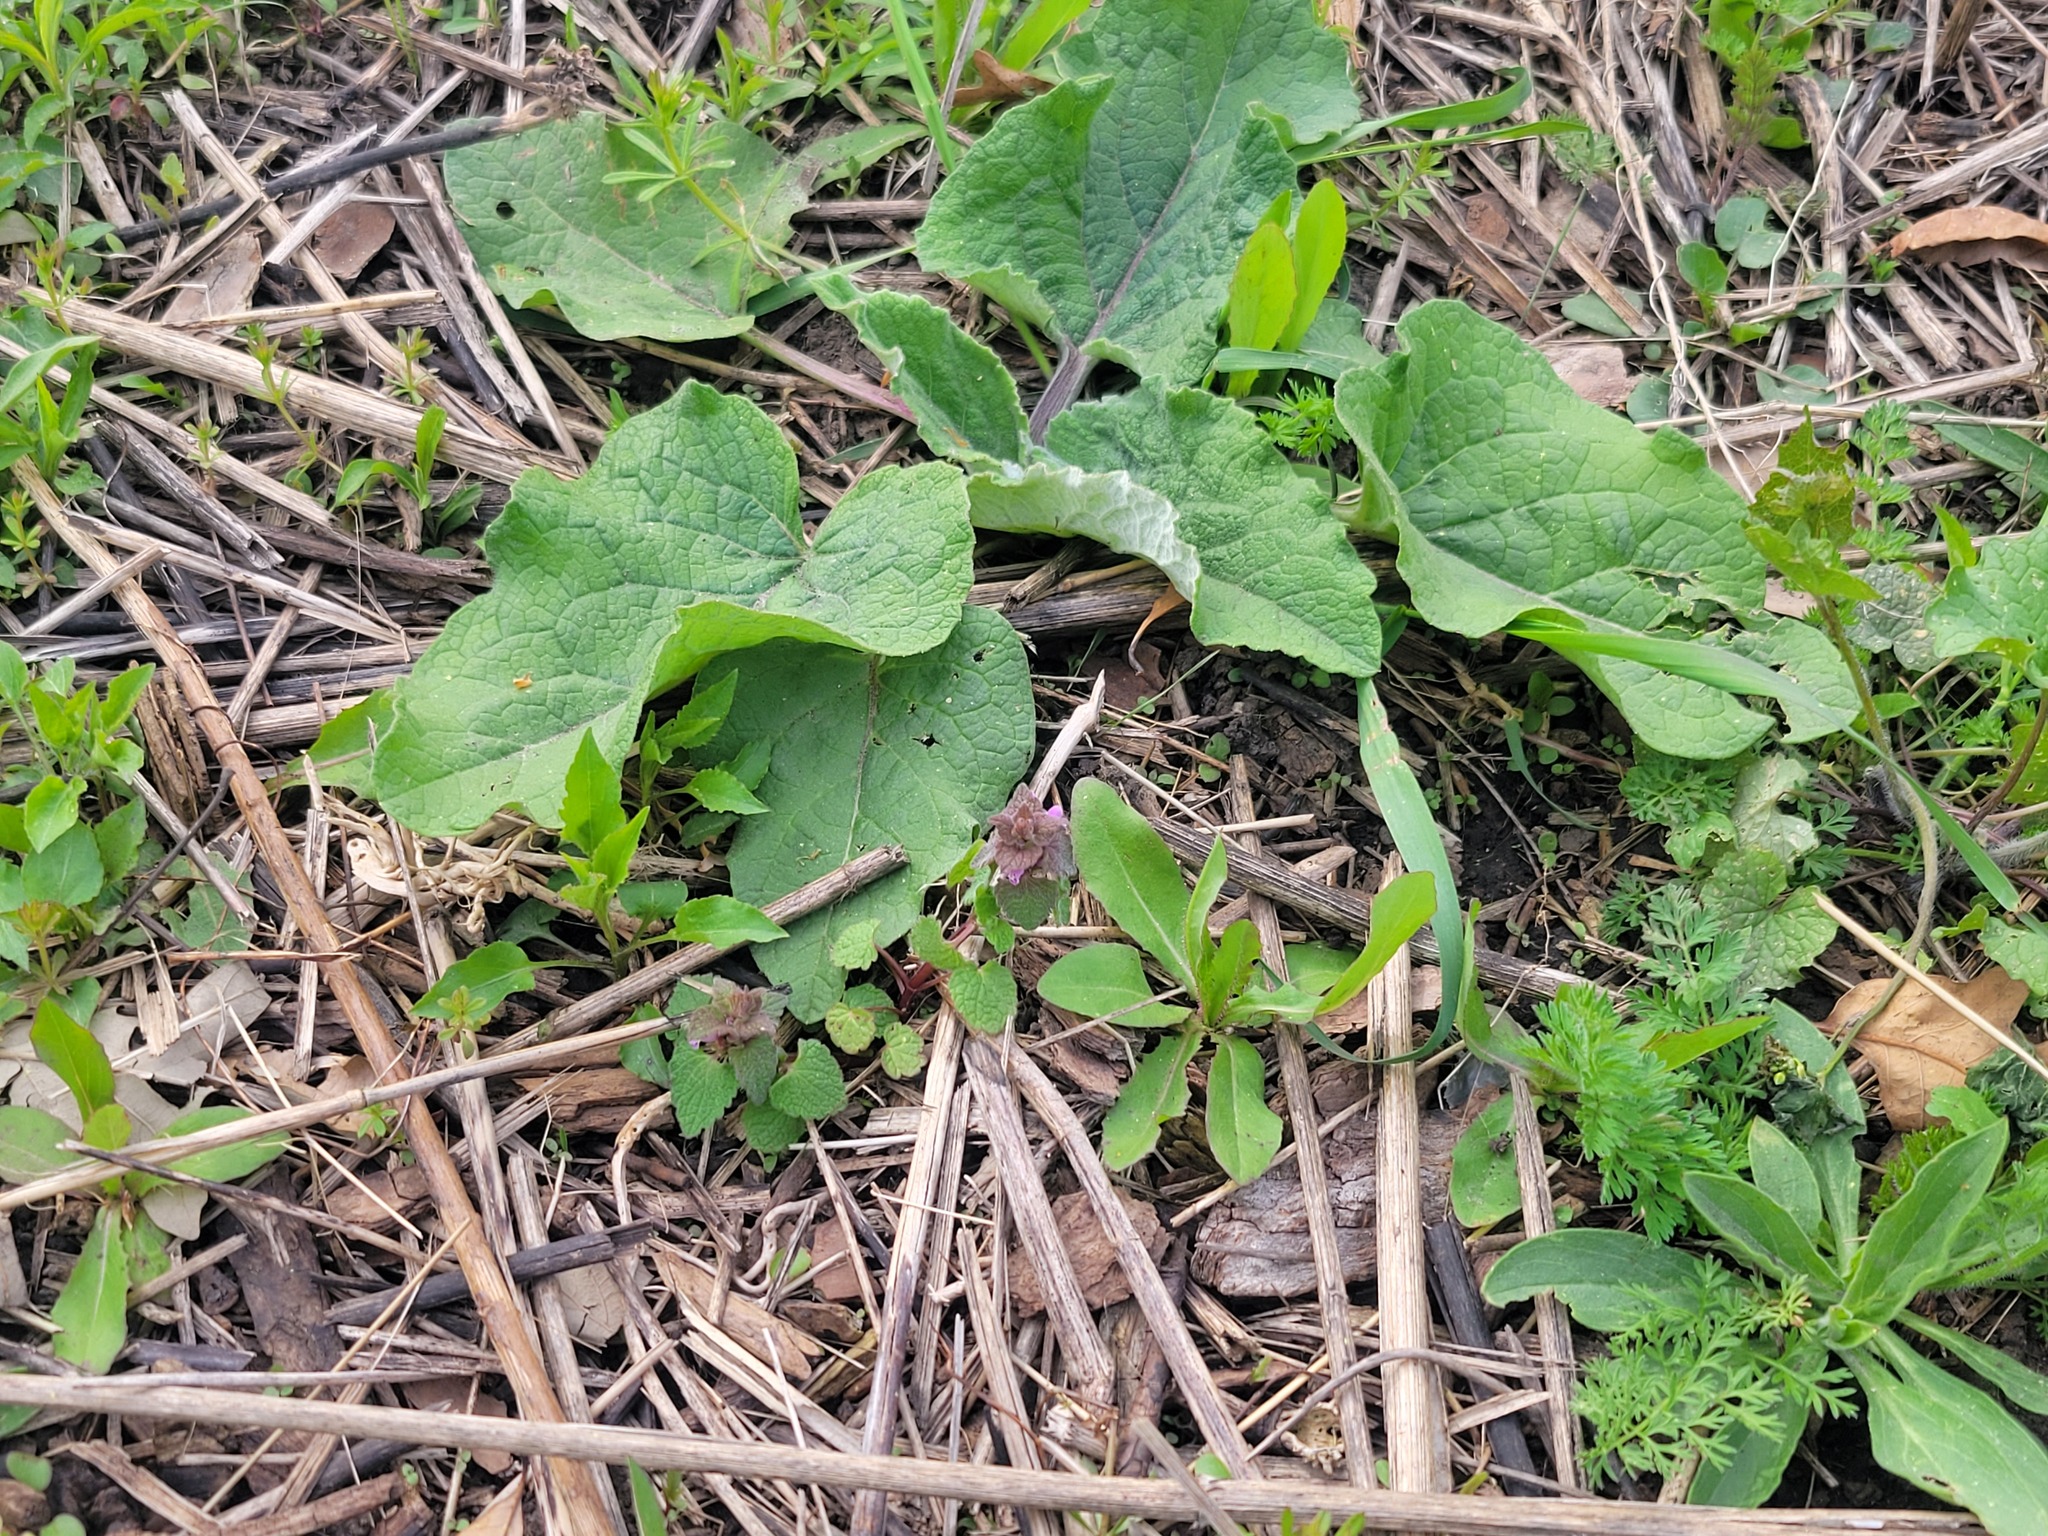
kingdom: Plantae
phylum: Tracheophyta
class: Magnoliopsida
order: Lamiales
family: Lamiaceae
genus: Lamium
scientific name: Lamium purpureum
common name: Red dead-nettle
